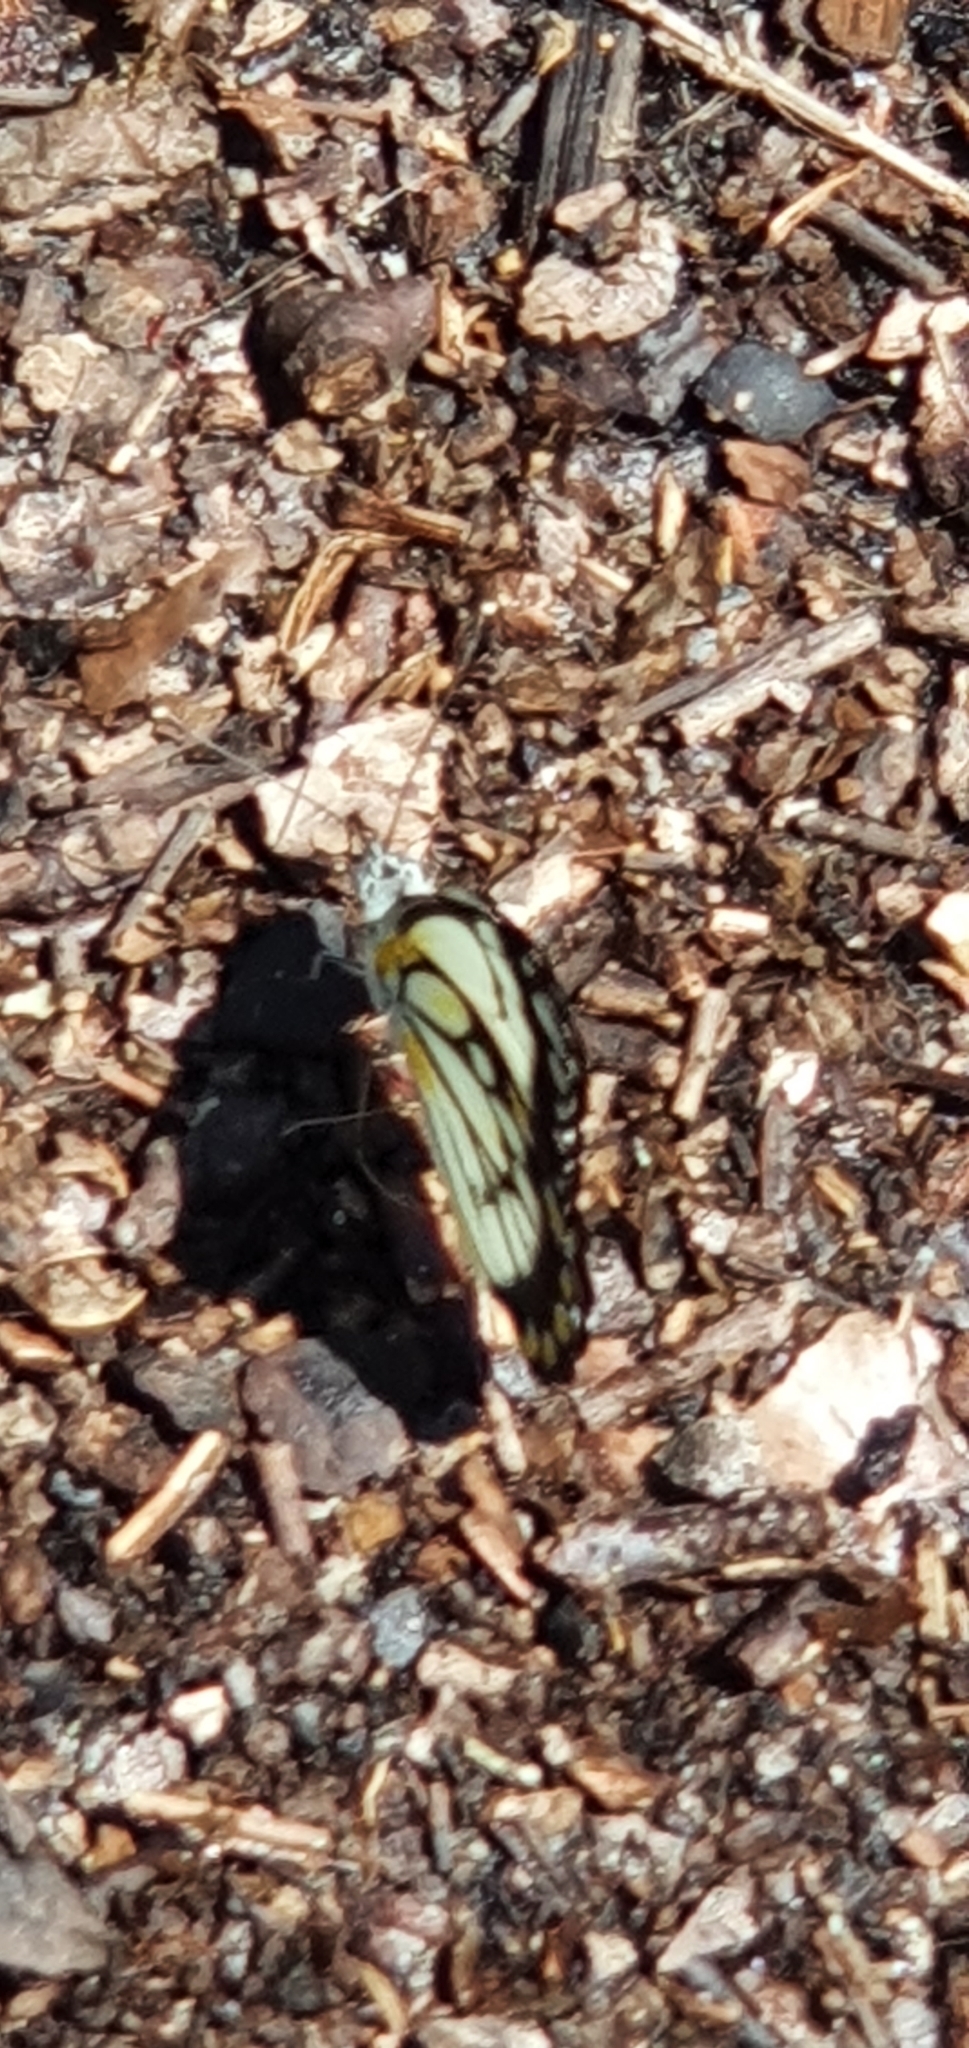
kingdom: Animalia
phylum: Arthropoda
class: Insecta
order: Lepidoptera
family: Pieridae
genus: Belenois
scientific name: Belenois java
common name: Caper white
